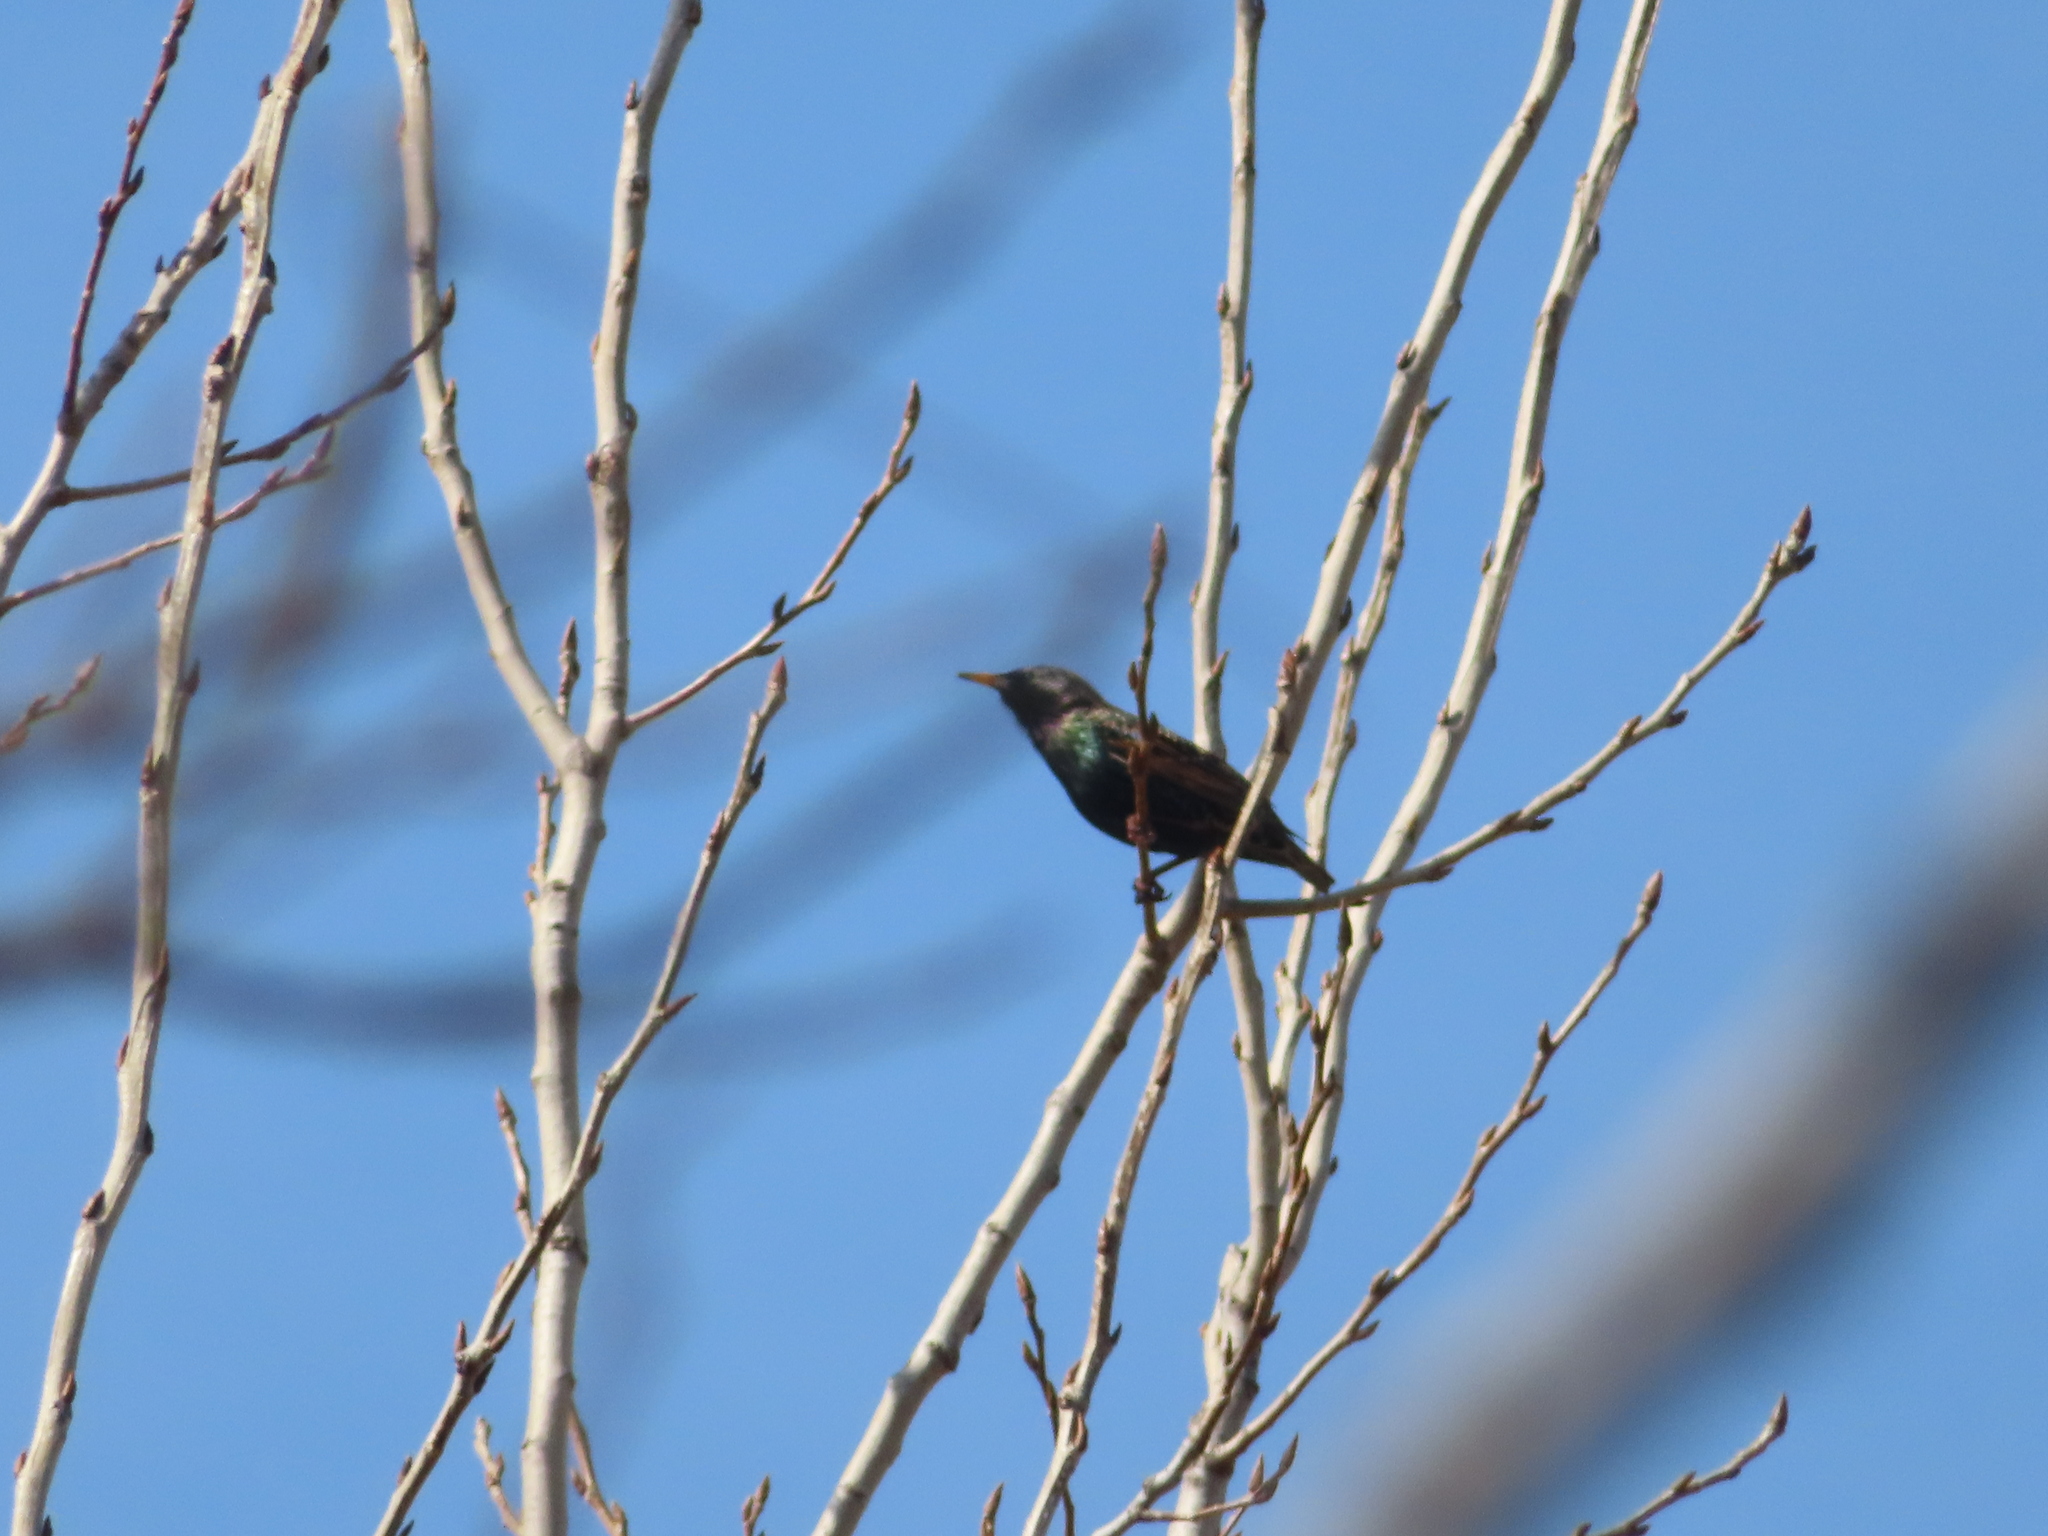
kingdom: Animalia
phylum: Chordata
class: Aves
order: Passeriformes
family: Sturnidae
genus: Sturnus
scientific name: Sturnus vulgaris
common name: Common starling
